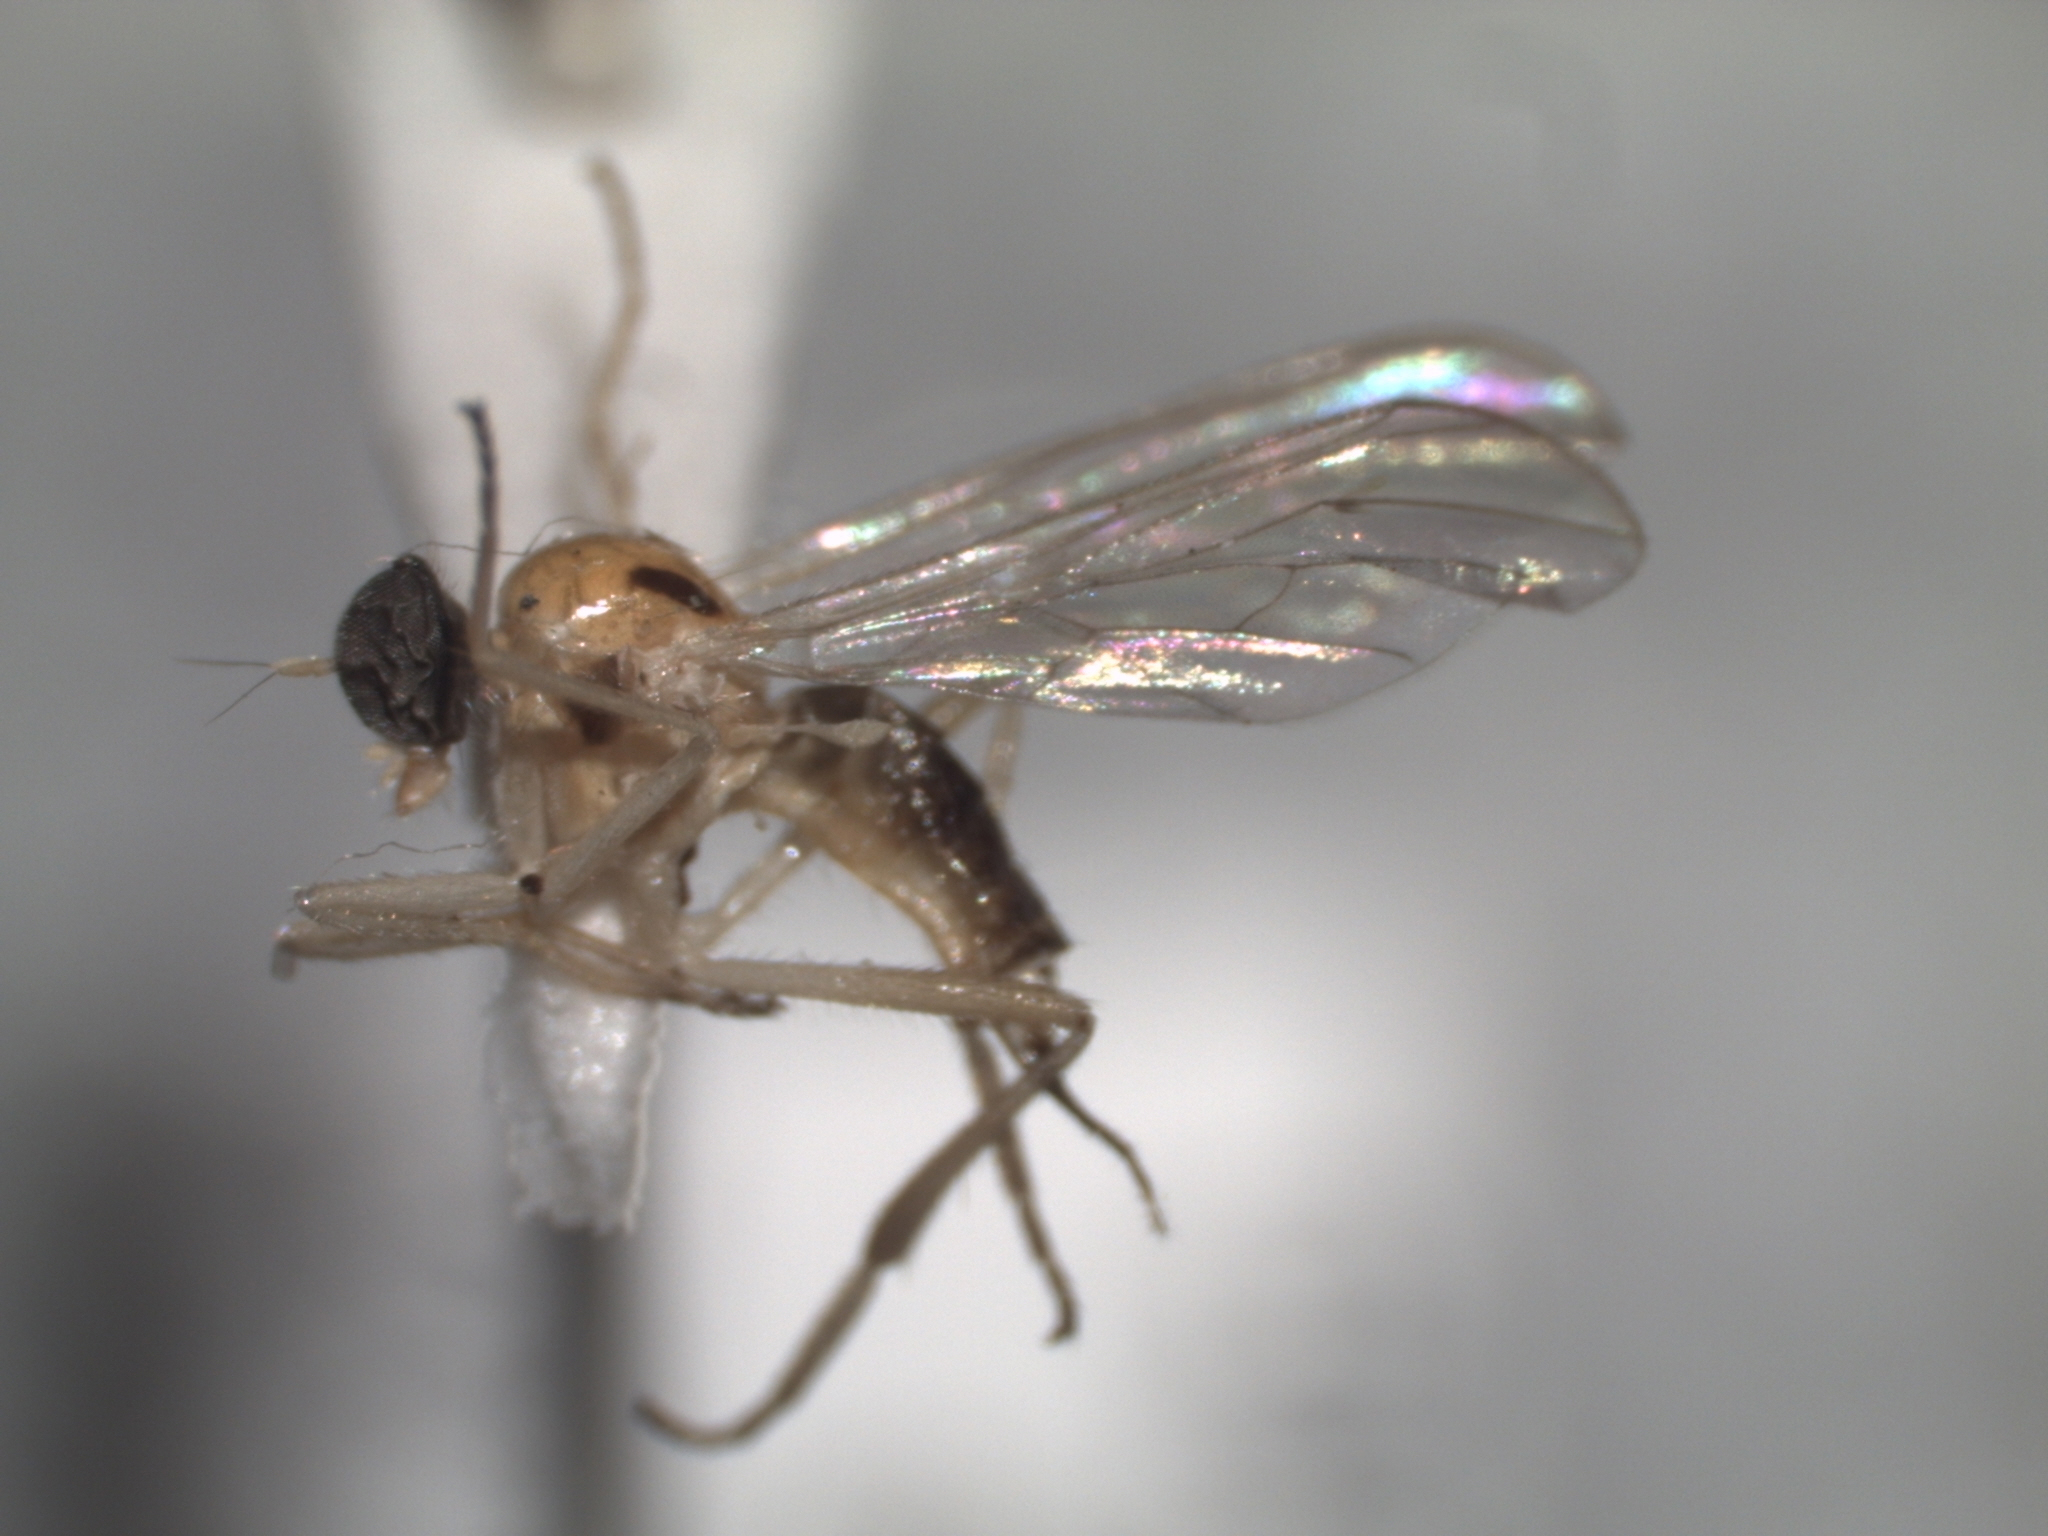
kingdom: Animalia
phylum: Arthropoda
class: Insecta
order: Diptera
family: Hybotidae
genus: Leptopeza
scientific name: Leptopeza compta
